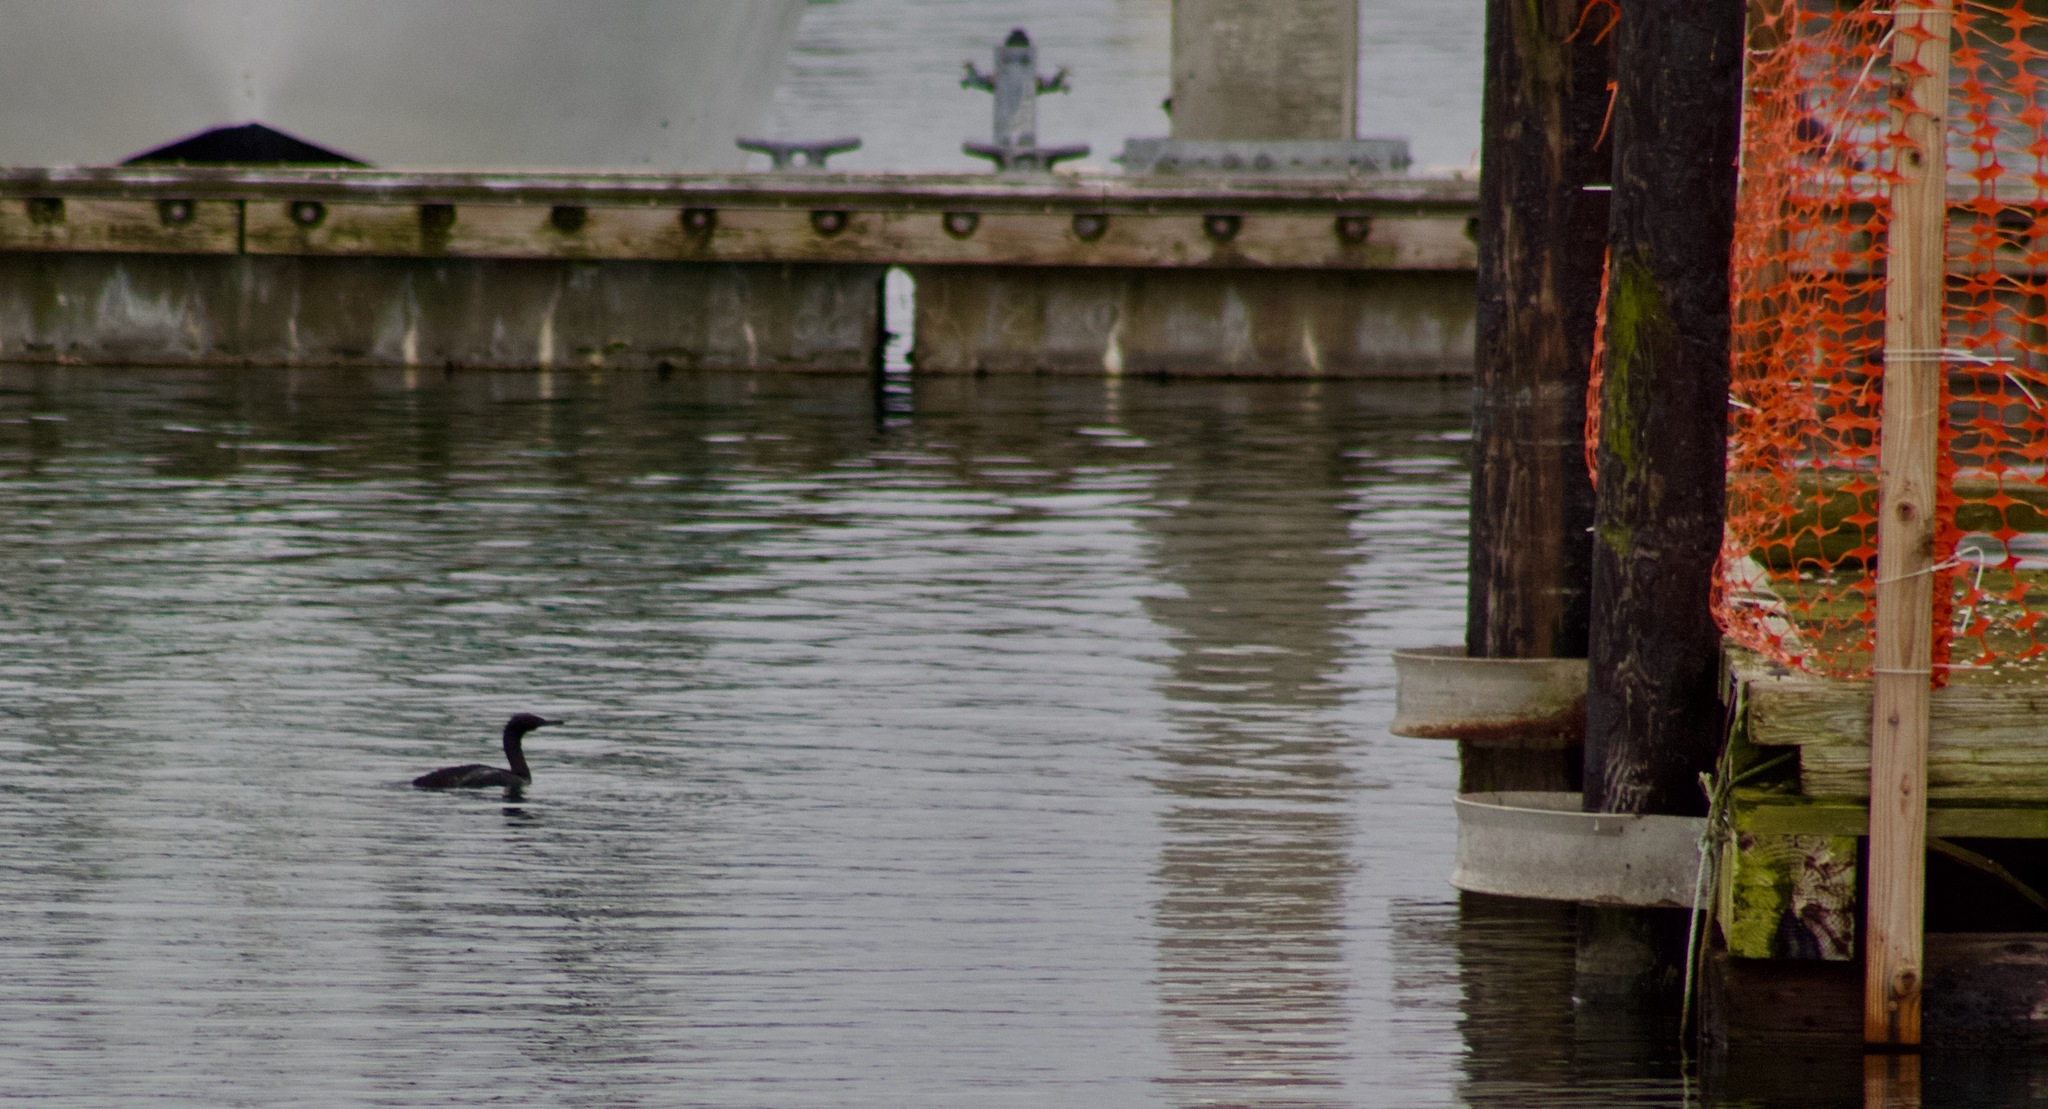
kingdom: Animalia
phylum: Chordata
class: Aves
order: Suliformes
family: Phalacrocoracidae
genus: Phalacrocorax
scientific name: Phalacrocorax pelagicus
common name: Pelagic cormorant
